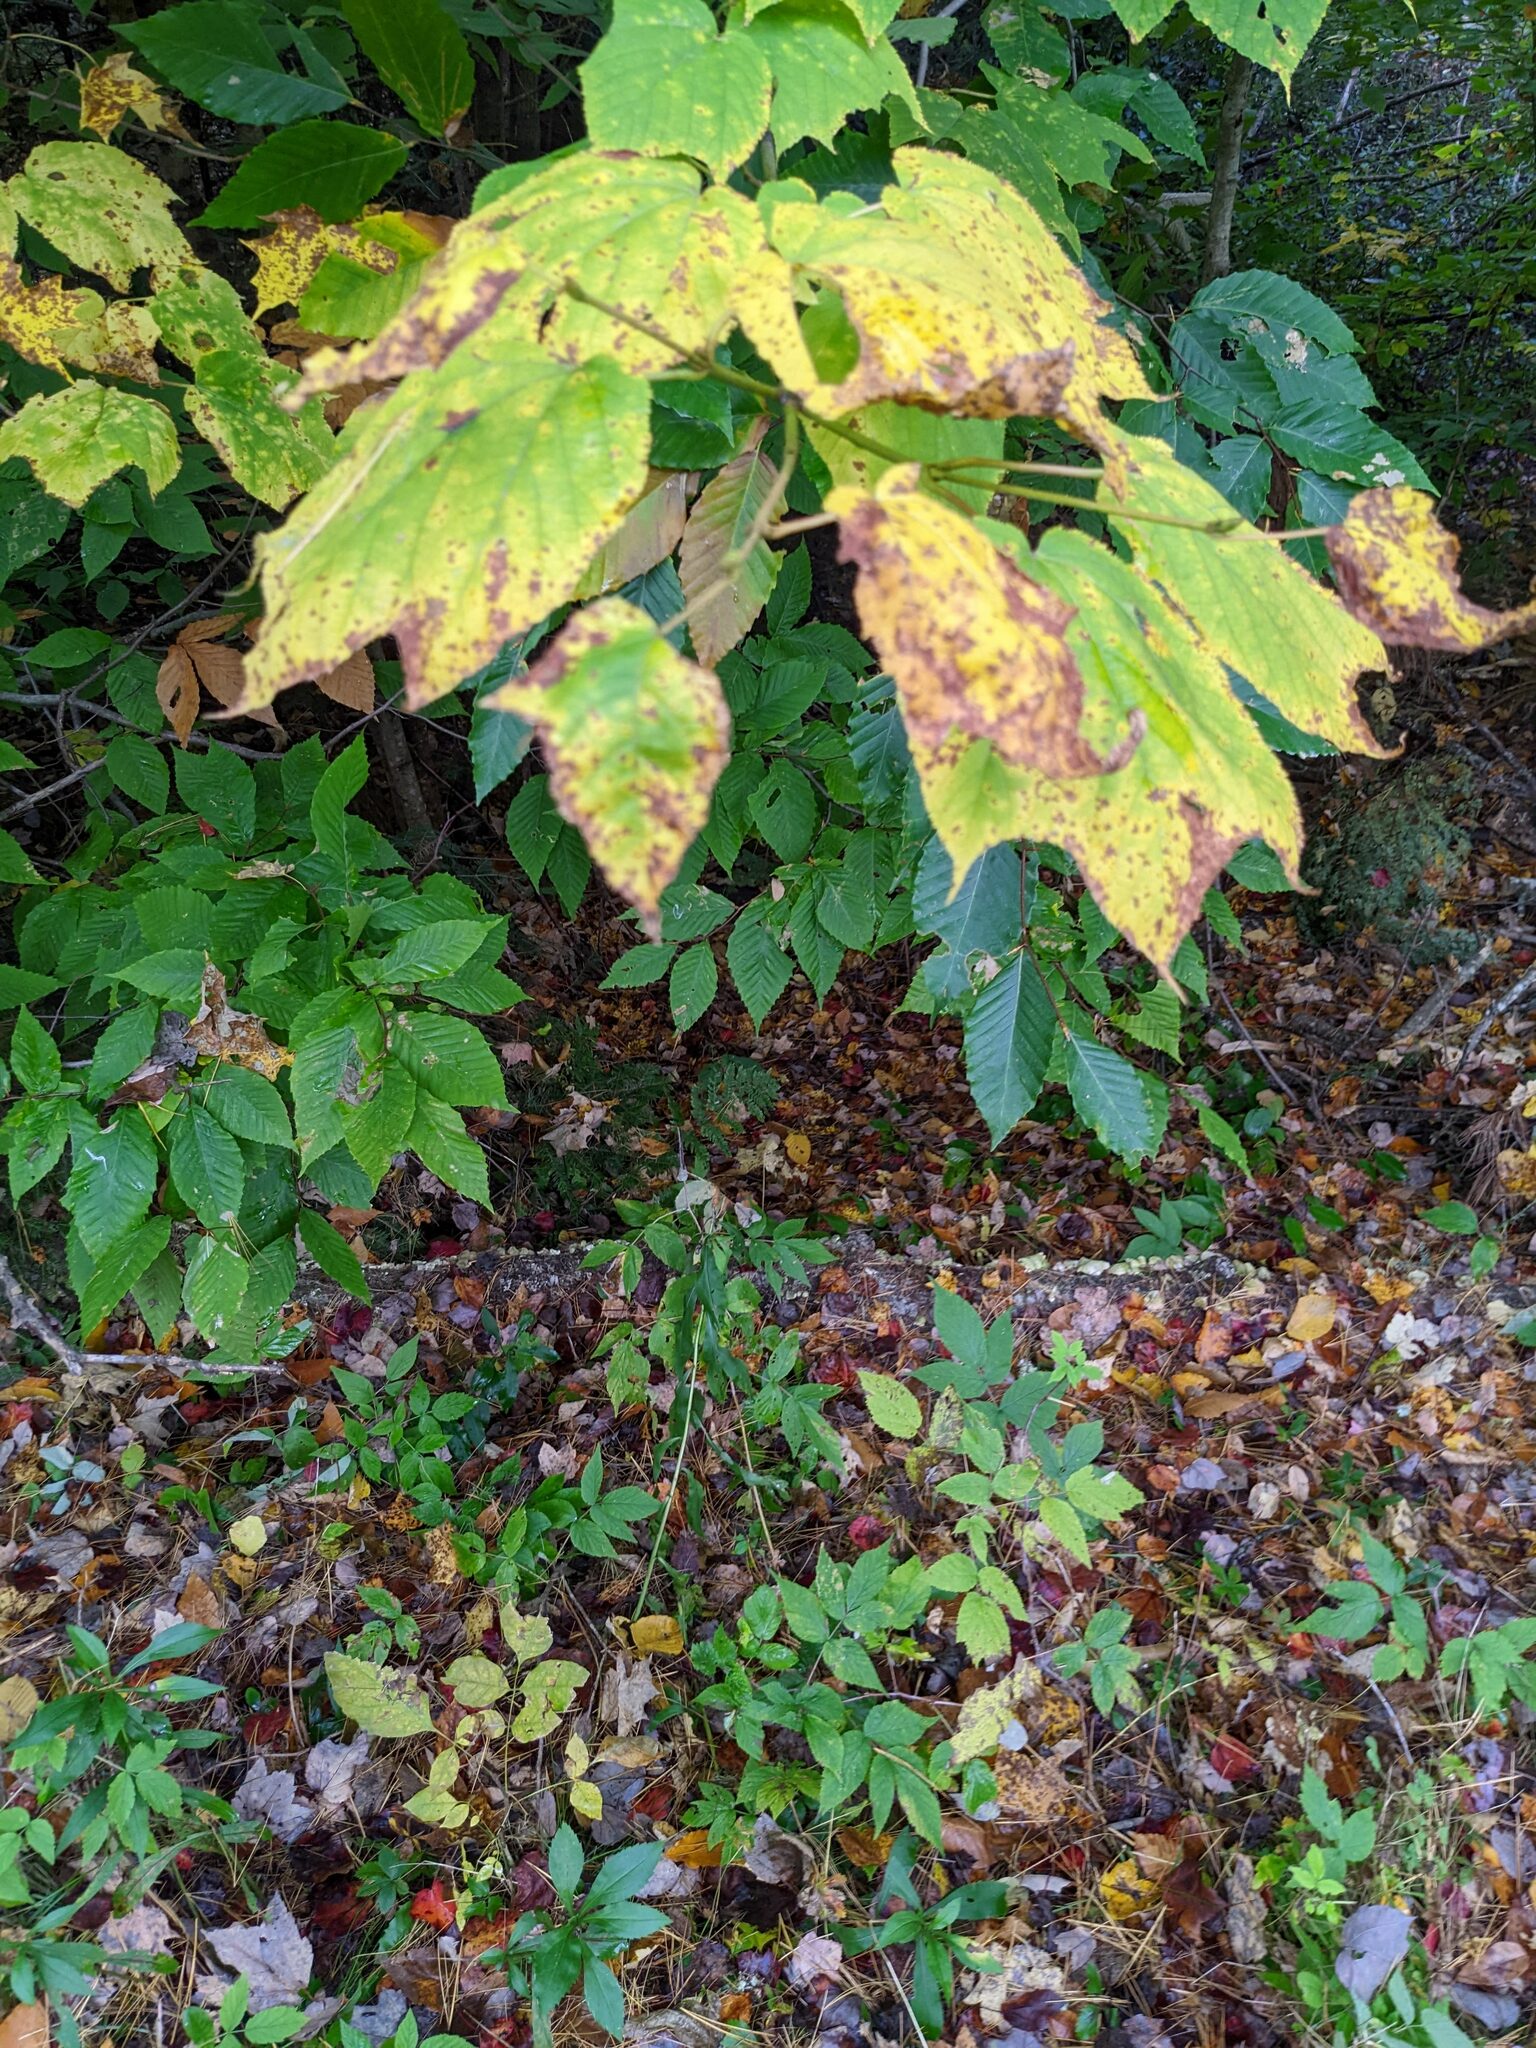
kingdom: Plantae
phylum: Tracheophyta
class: Magnoliopsida
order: Sapindales
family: Sapindaceae
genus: Acer
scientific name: Acer pensylvanicum
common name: Moosewood
